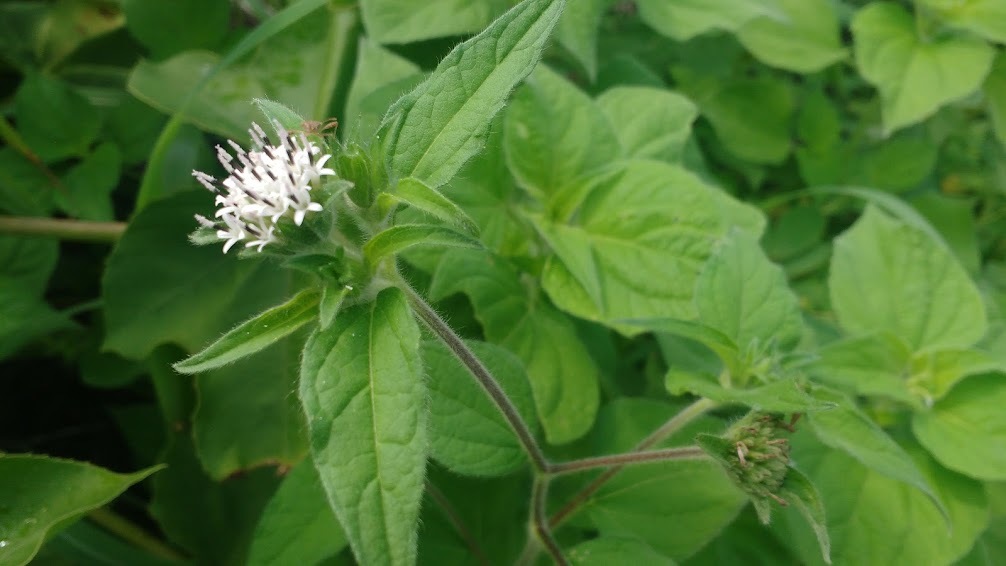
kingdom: Plantae
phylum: Tracheophyta
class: Magnoliopsida
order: Asterales
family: Asteraceae
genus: Lagascea
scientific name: Lagascea mollis
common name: Silkleaf
